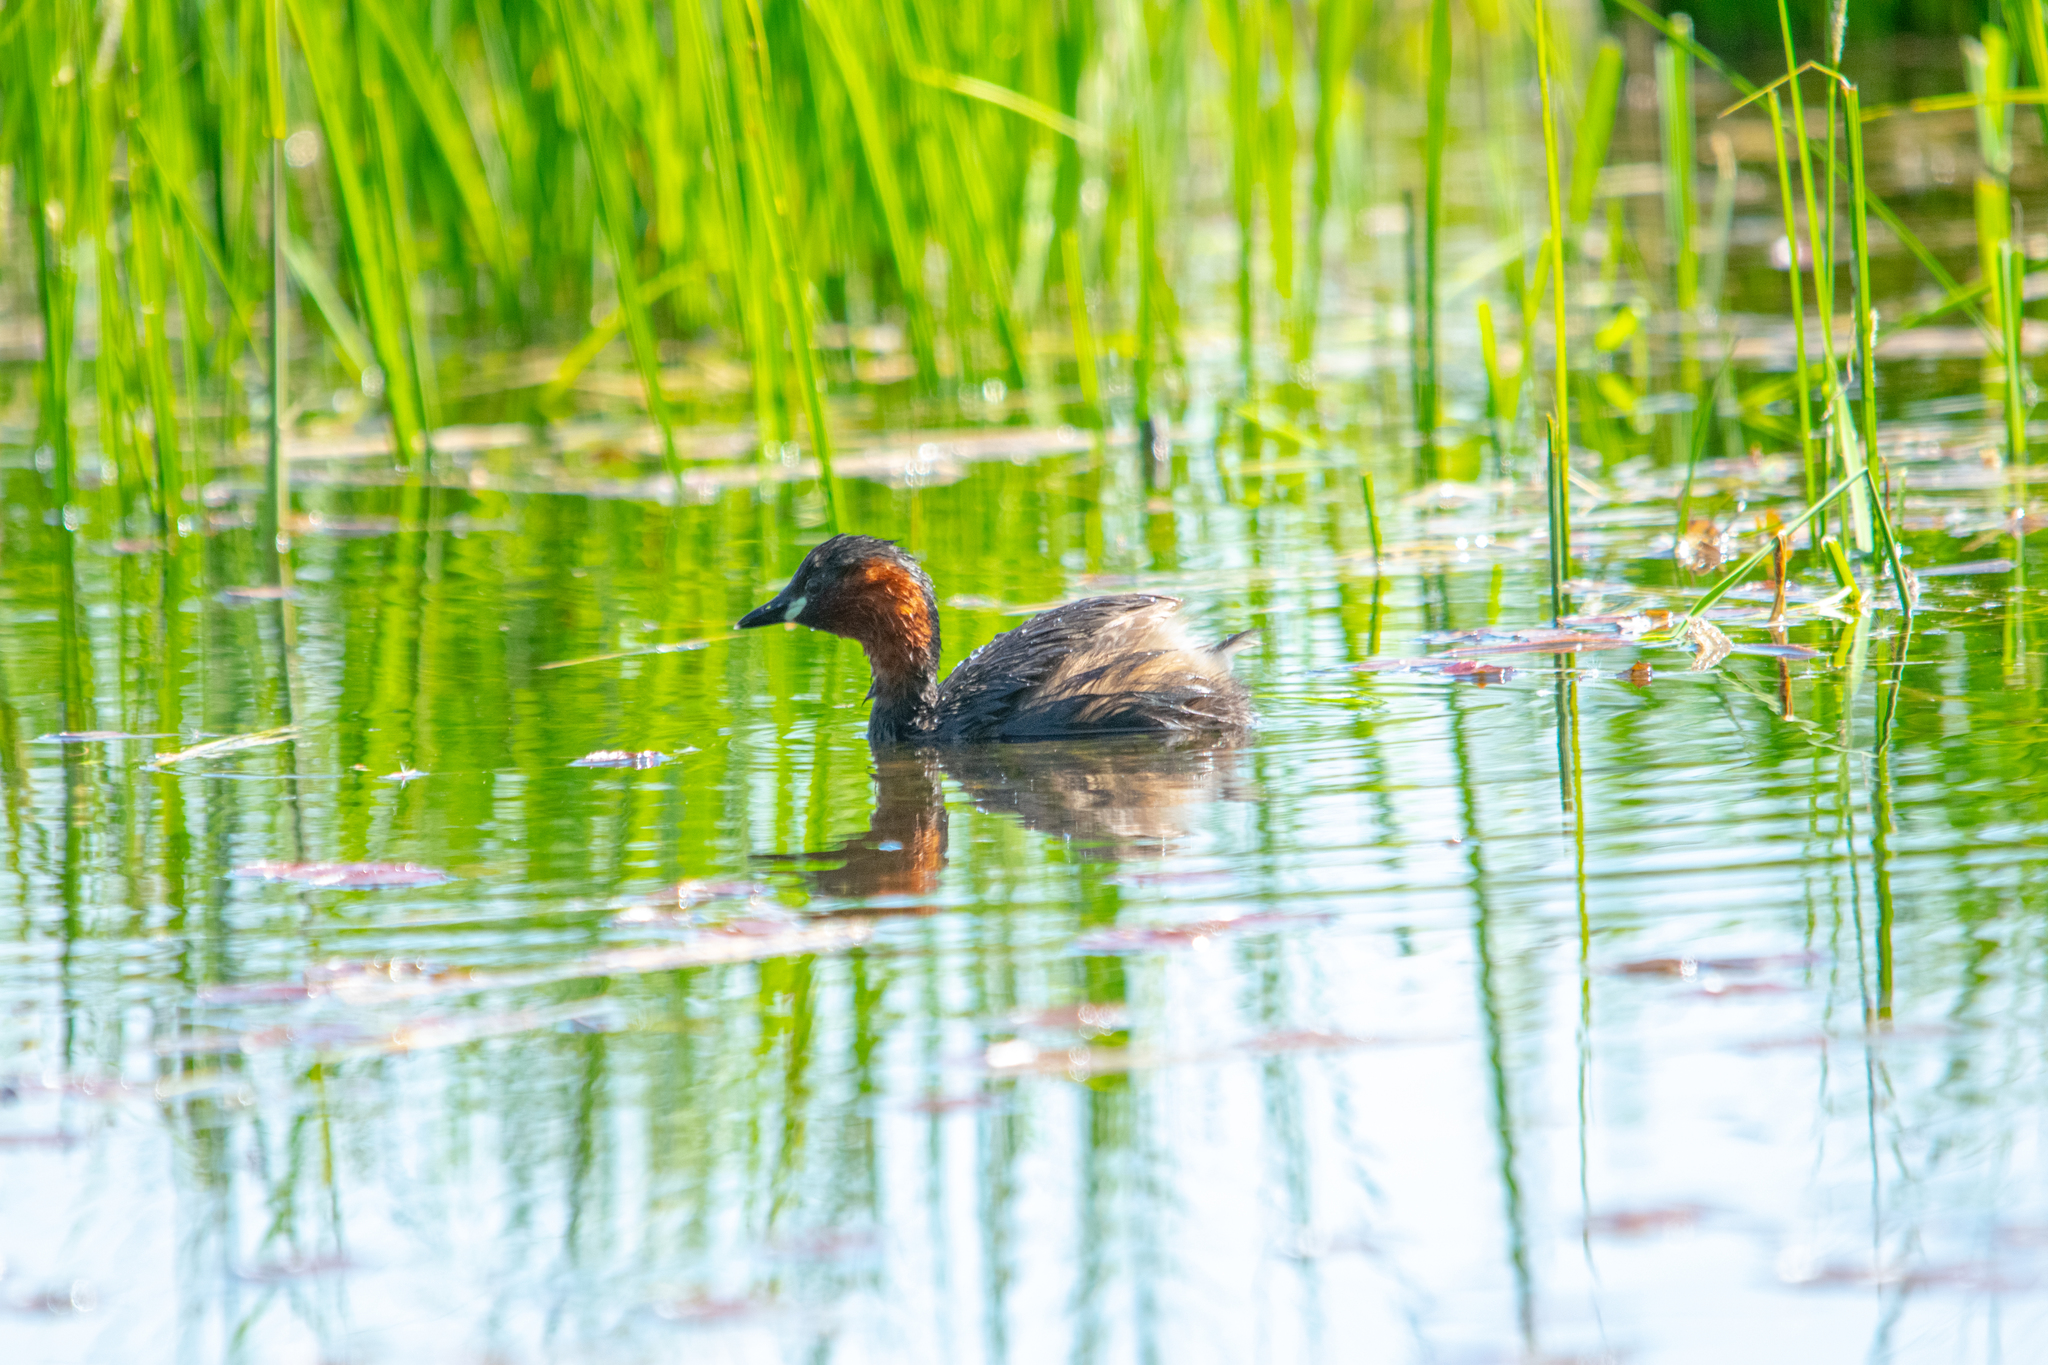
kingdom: Animalia
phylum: Chordata
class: Aves
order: Podicipediformes
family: Podicipedidae
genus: Tachybaptus
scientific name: Tachybaptus ruficollis
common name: Little grebe
